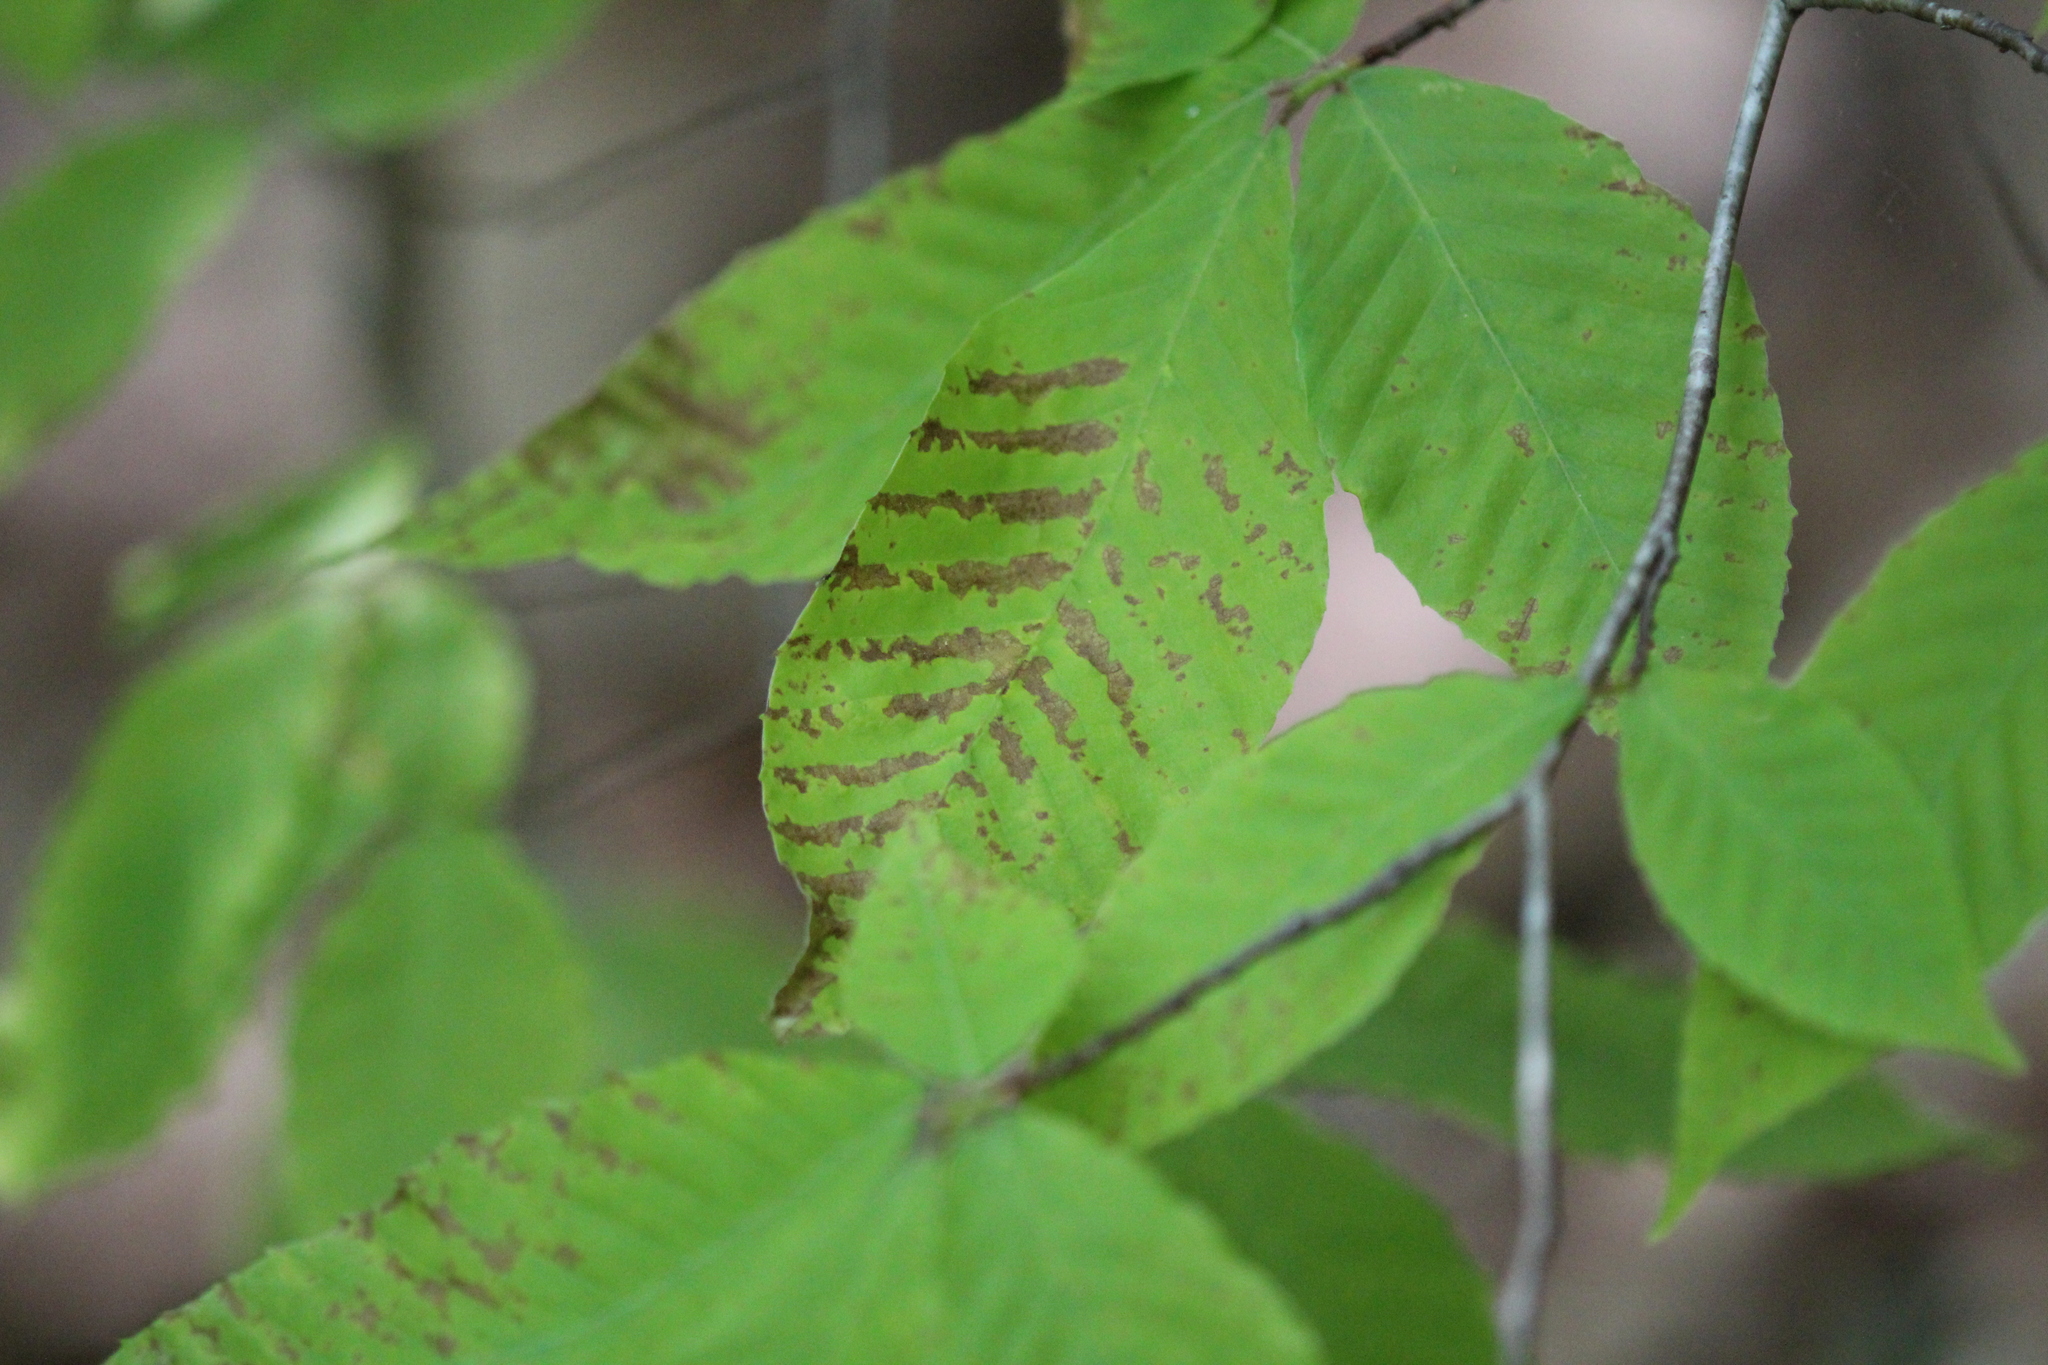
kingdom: Plantae
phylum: Tracheophyta
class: Magnoliopsida
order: Fagales
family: Fagaceae
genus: Fagus
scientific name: Fagus grandifolia
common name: American beech
